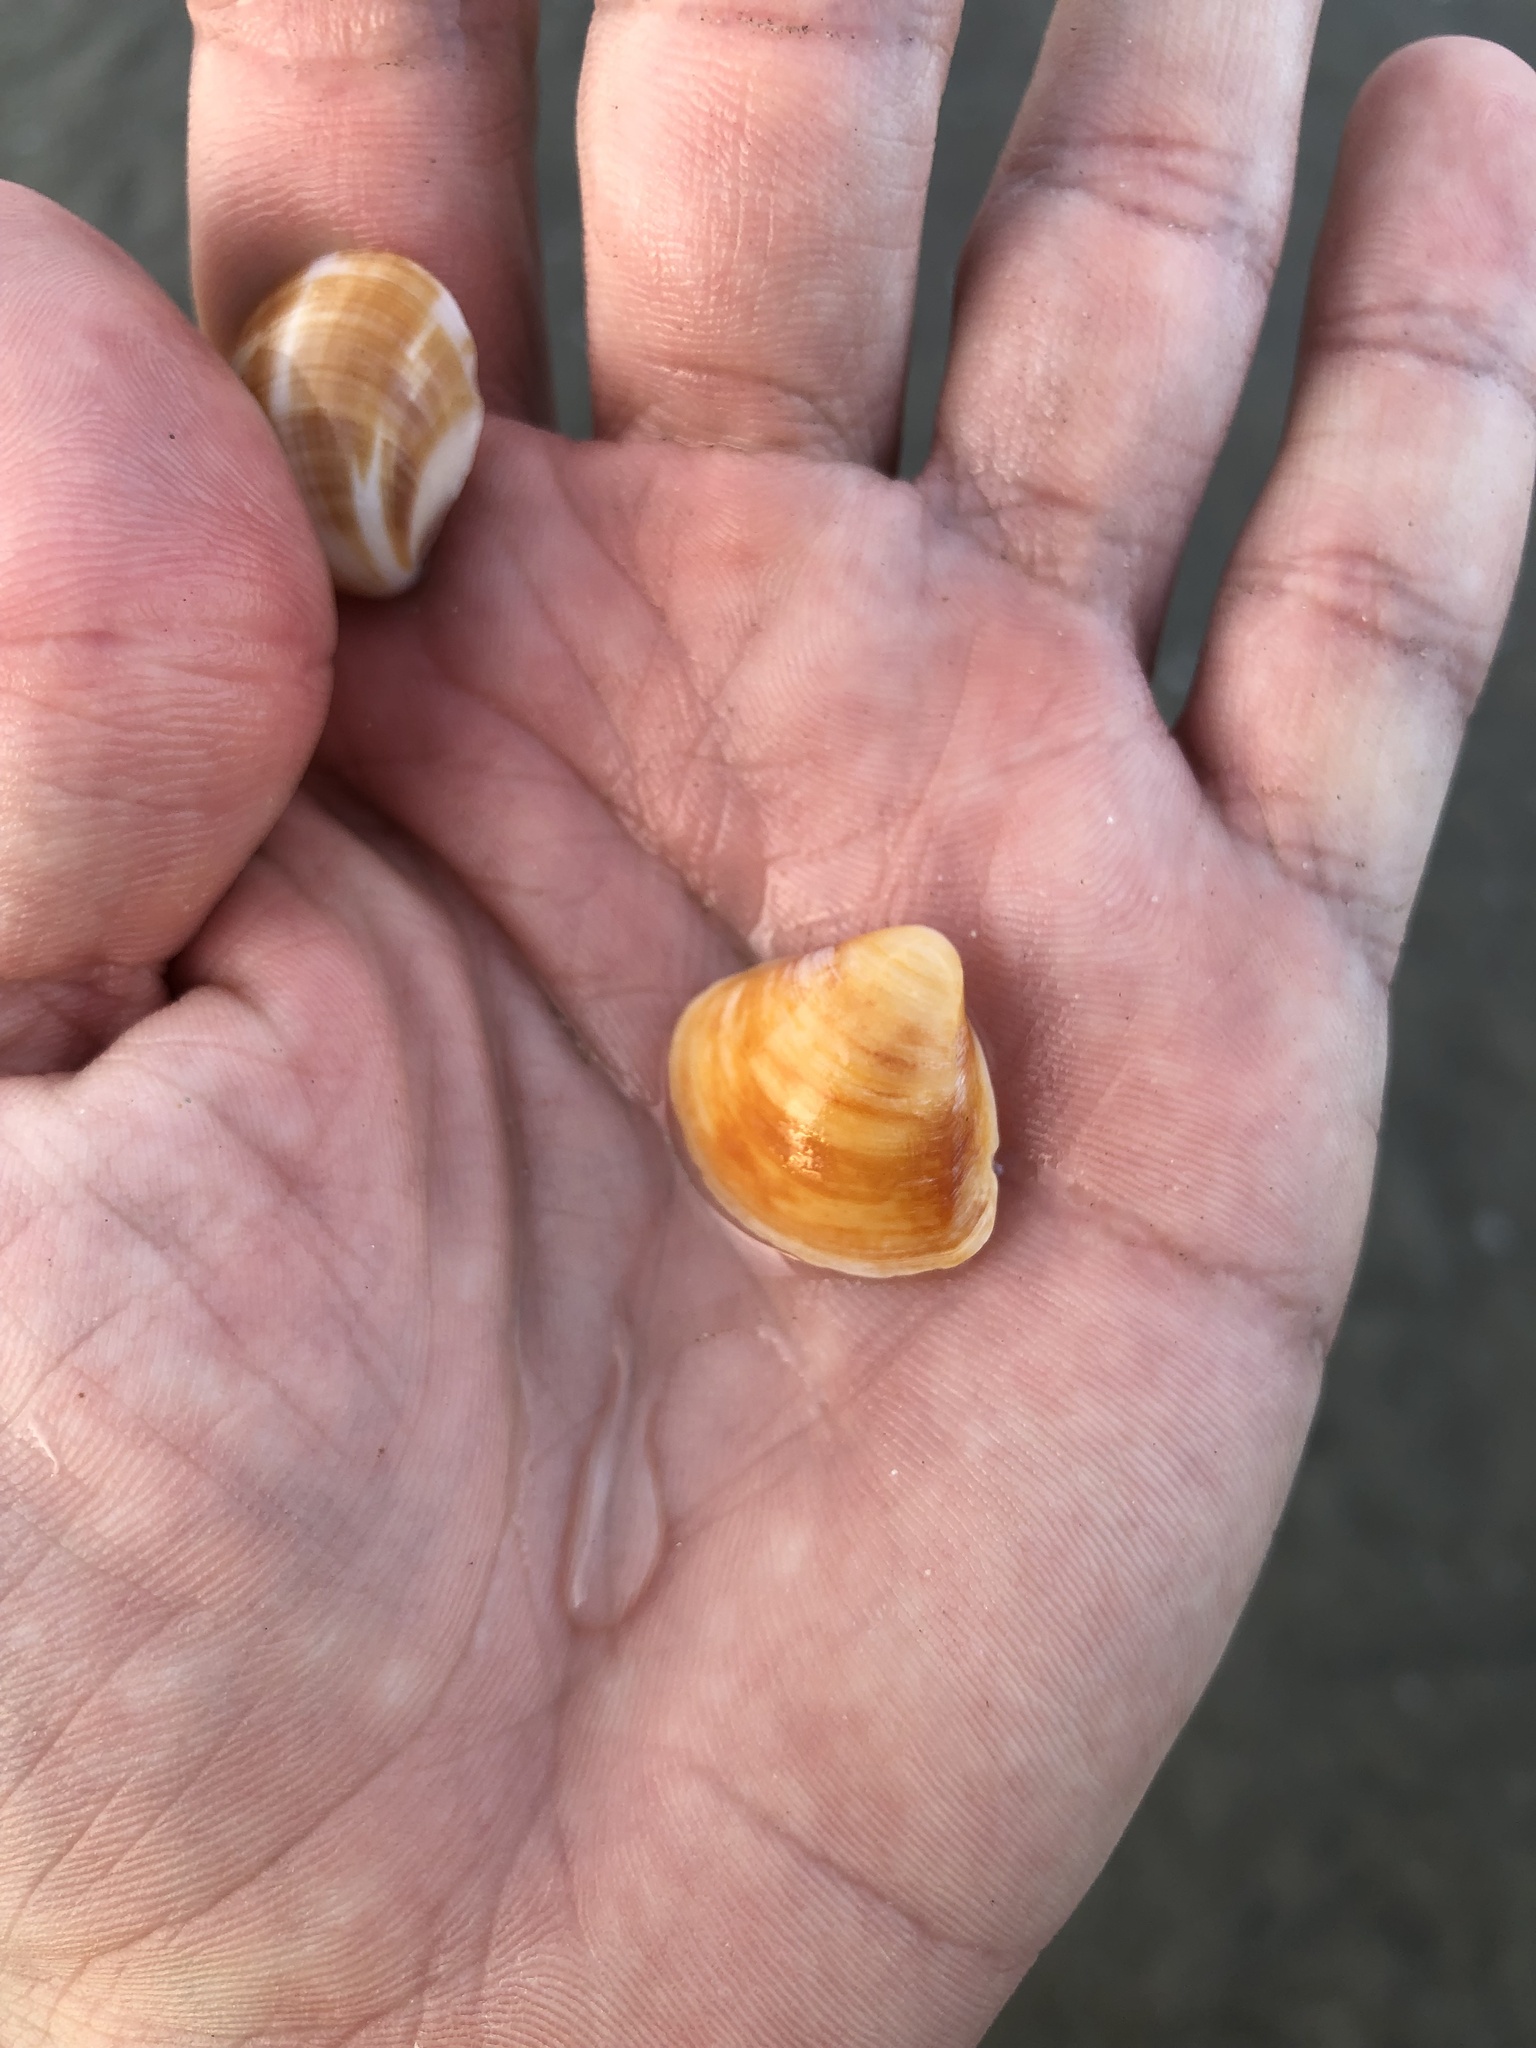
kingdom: Animalia
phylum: Mollusca
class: Bivalvia
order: Venerida
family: Veneridae
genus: Tivela
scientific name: Tivela mactroides
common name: Trigonal tivela
